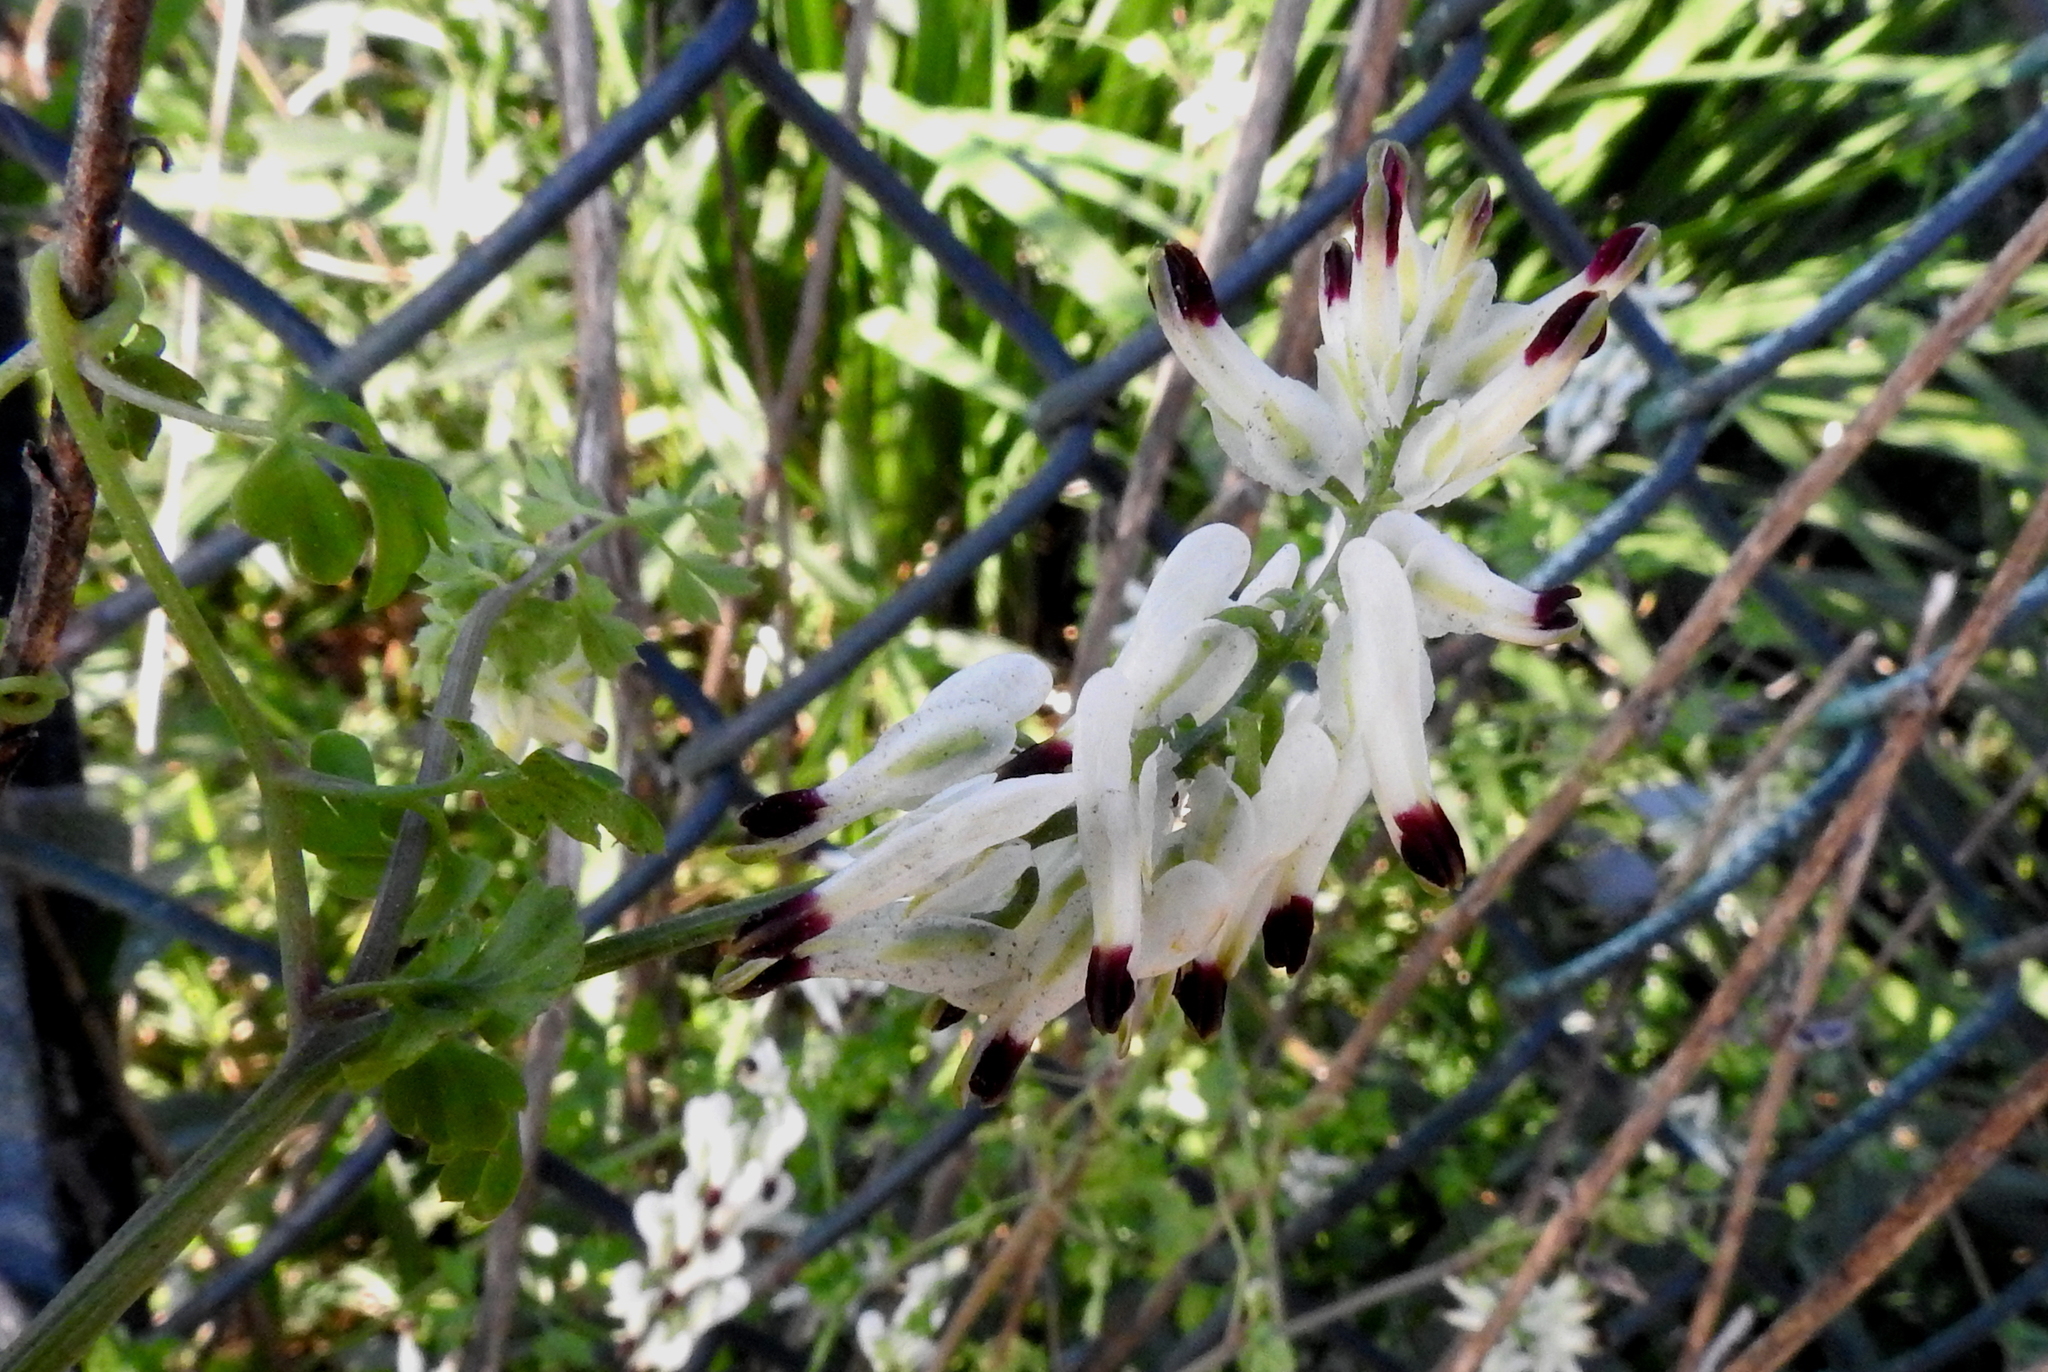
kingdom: Plantae
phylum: Tracheophyta
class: Magnoliopsida
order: Ranunculales
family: Papaveraceae
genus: Fumaria
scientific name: Fumaria capreolata
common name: White ramping-fumitory
